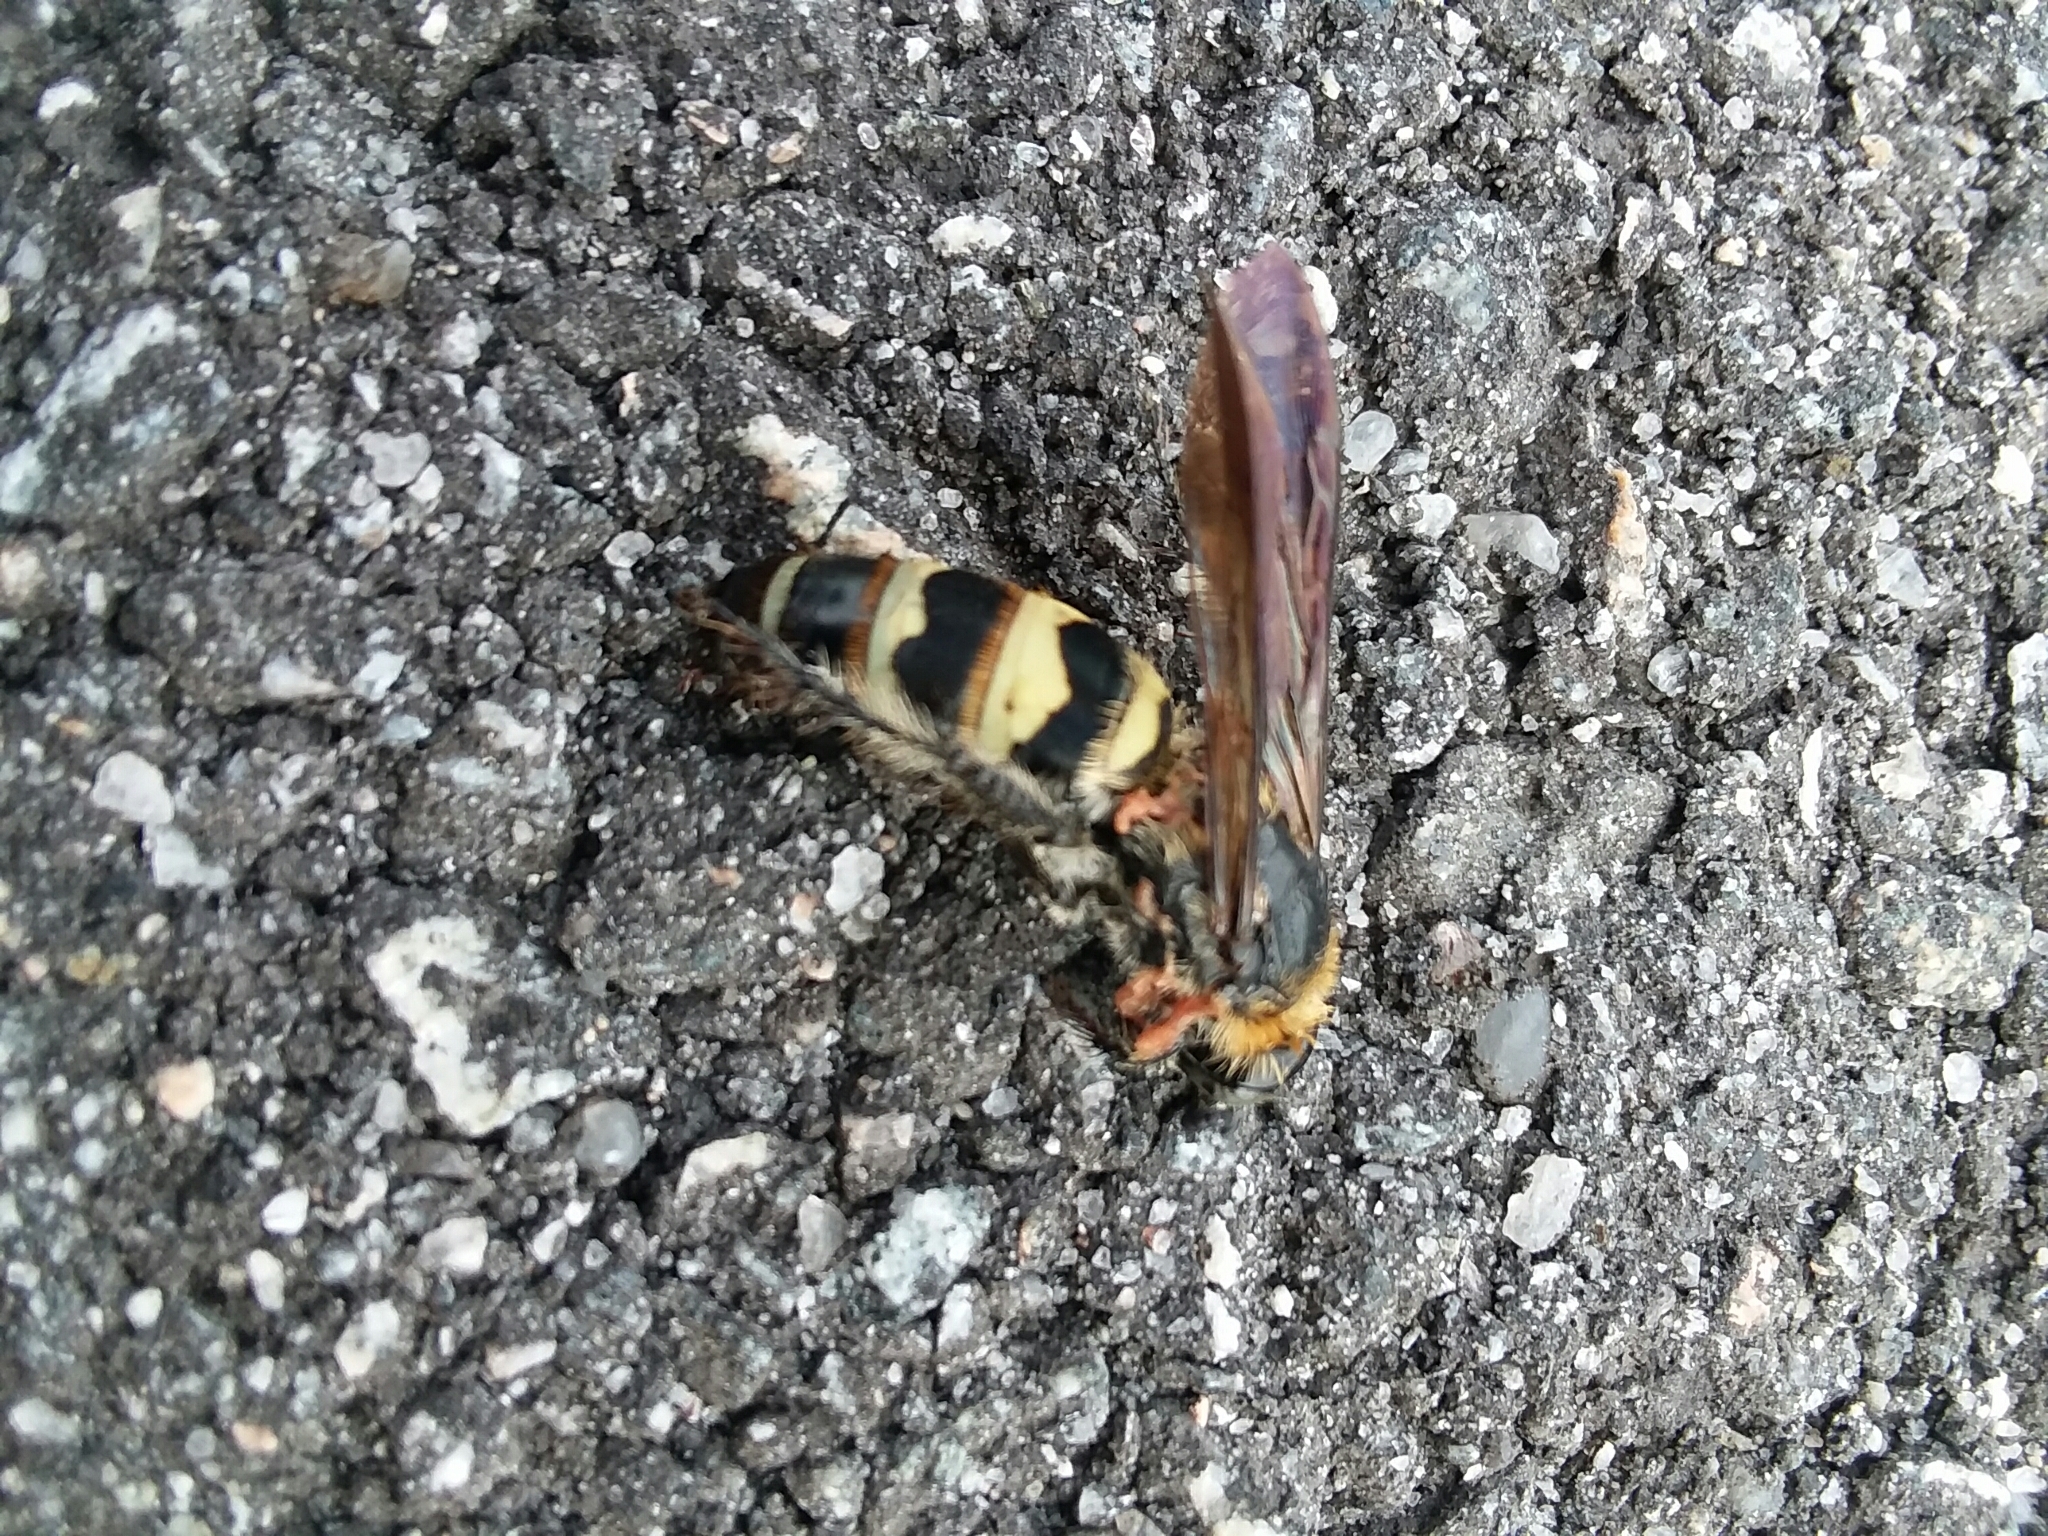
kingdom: Animalia
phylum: Arthropoda
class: Insecta
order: Hymenoptera
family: Scoliidae
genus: Dielis
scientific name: Dielis
